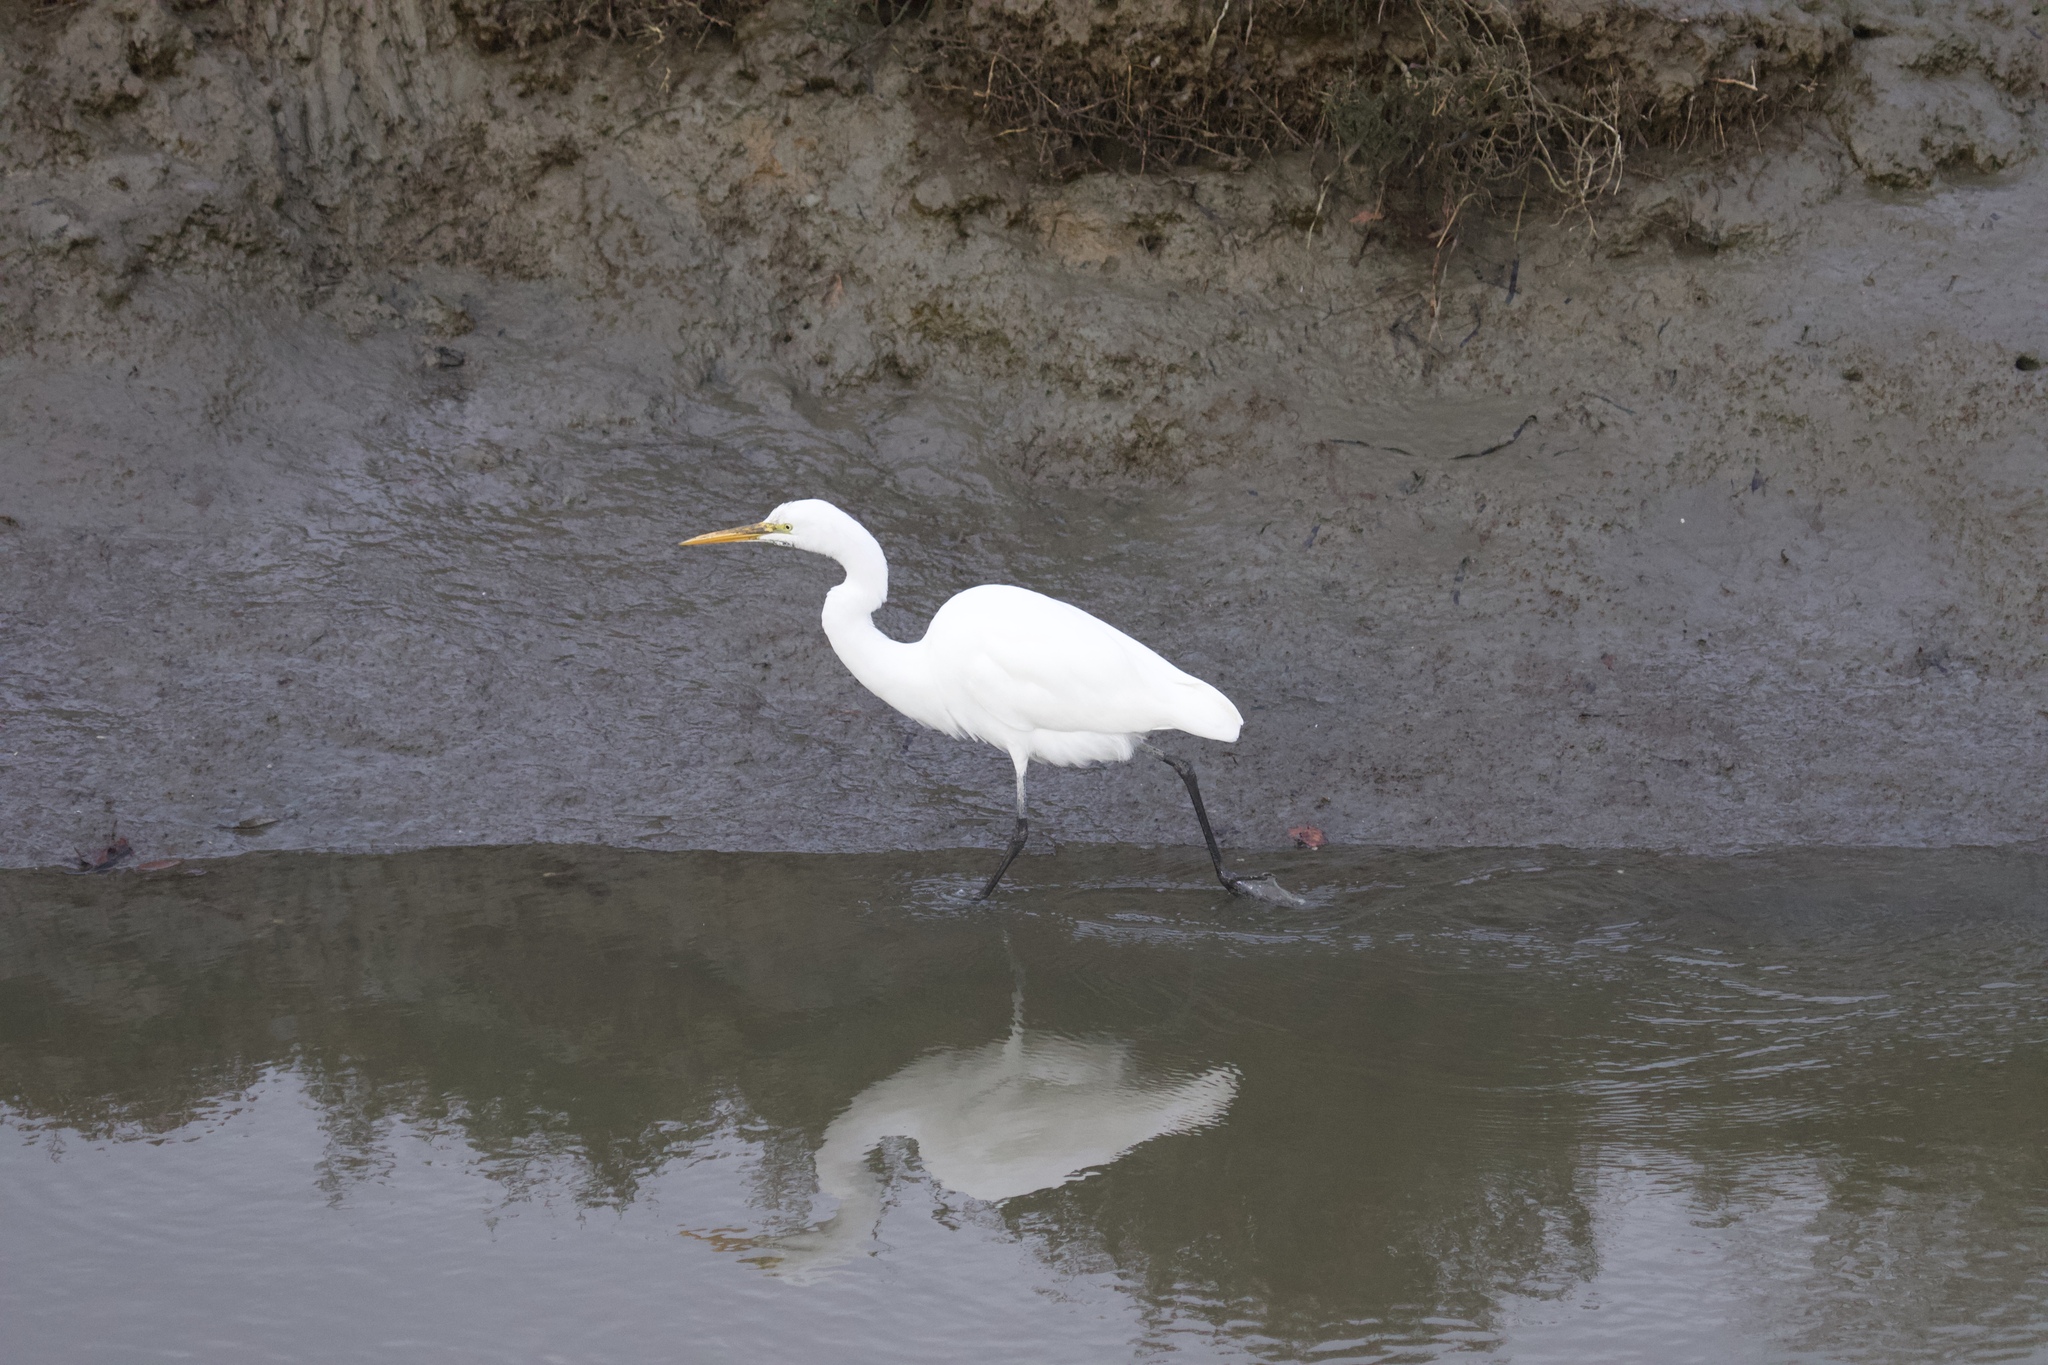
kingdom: Animalia
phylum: Chordata
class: Aves
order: Pelecaniformes
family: Ardeidae
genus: Ardea
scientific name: Ardea alba
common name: Great egret
